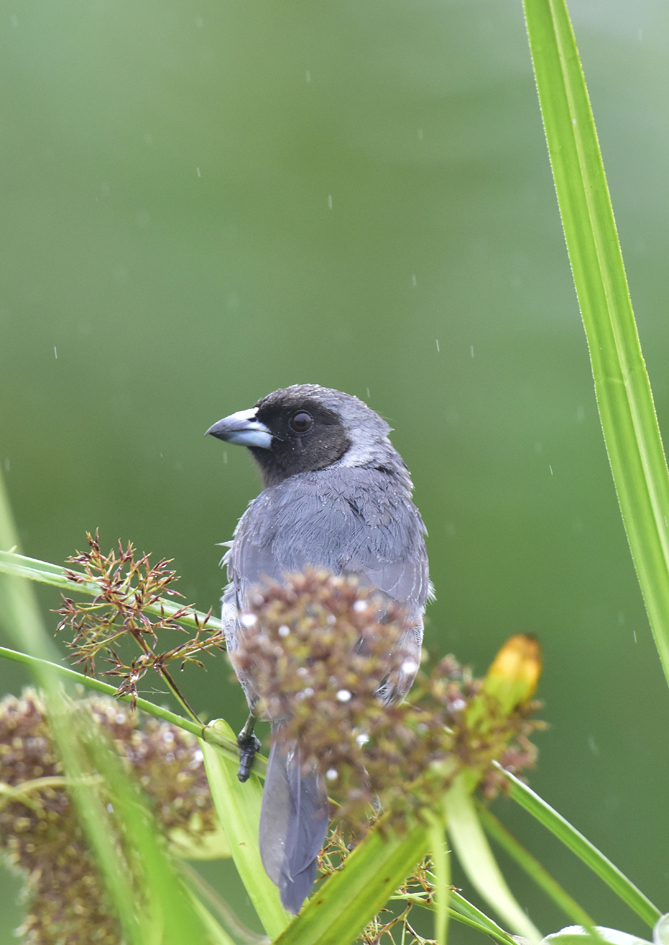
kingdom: Animalia
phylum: Chordata
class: Aves
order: Passeriformes
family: Thraupidae
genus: Schistochlamys
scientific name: Schistochlamys melanopis
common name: Black-faced tanager
